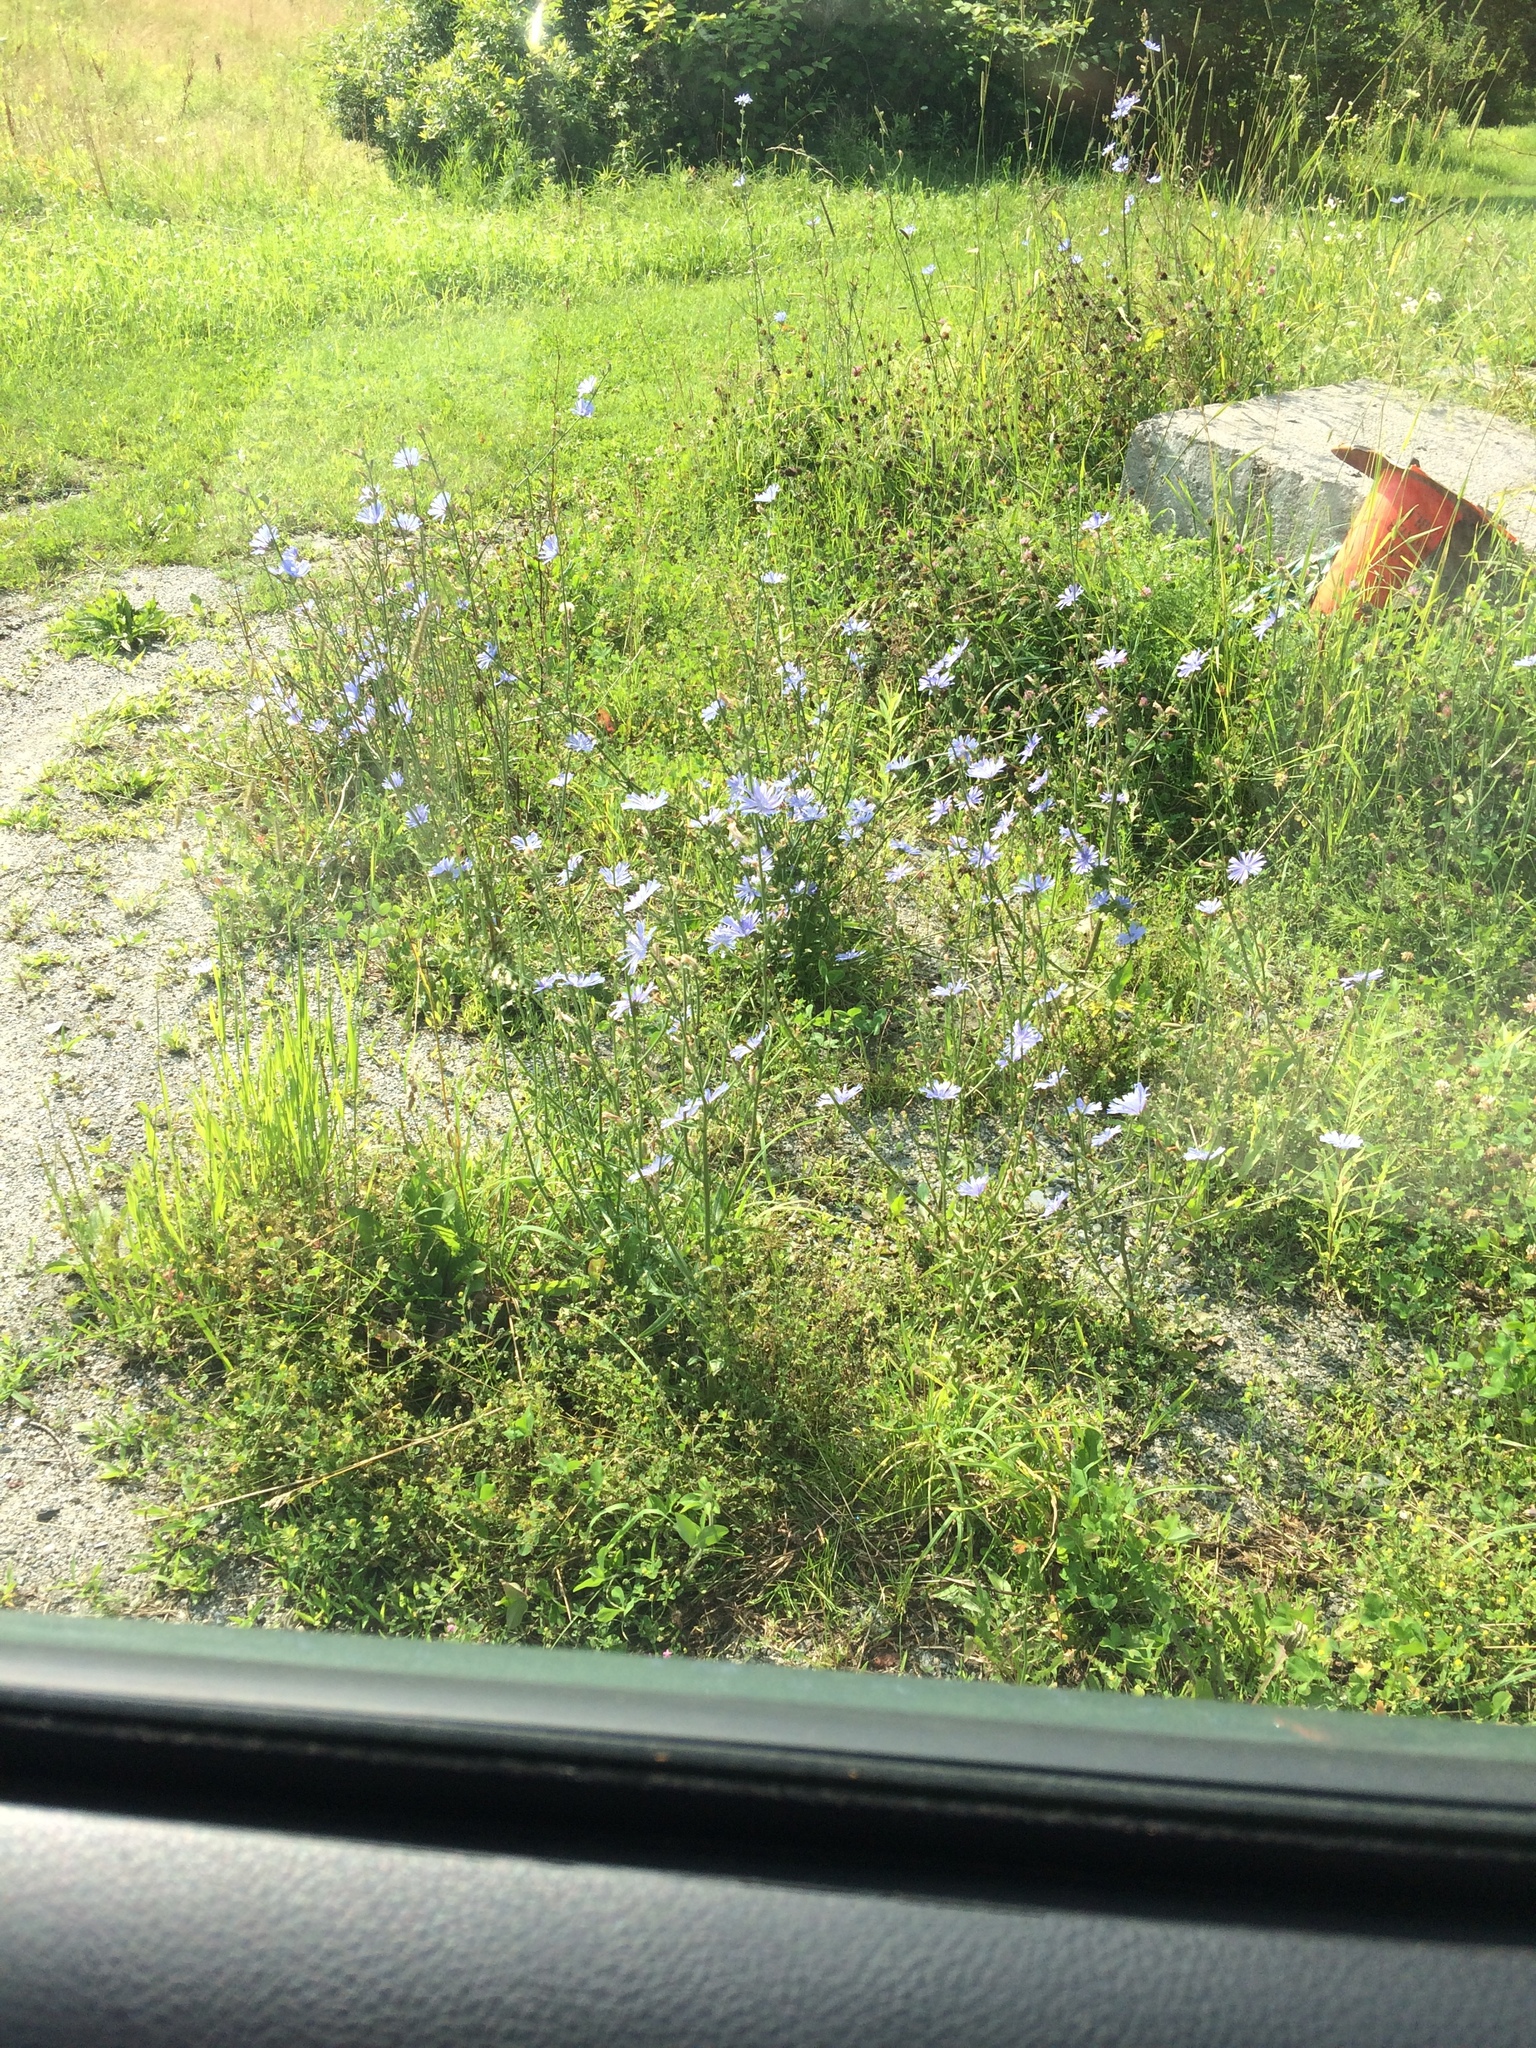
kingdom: Plantae
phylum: Tracheophyta
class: Magnoliopsida
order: Asterales
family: Asteraceae
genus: Cichorium
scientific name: Cichorium intybus
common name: Chicory
